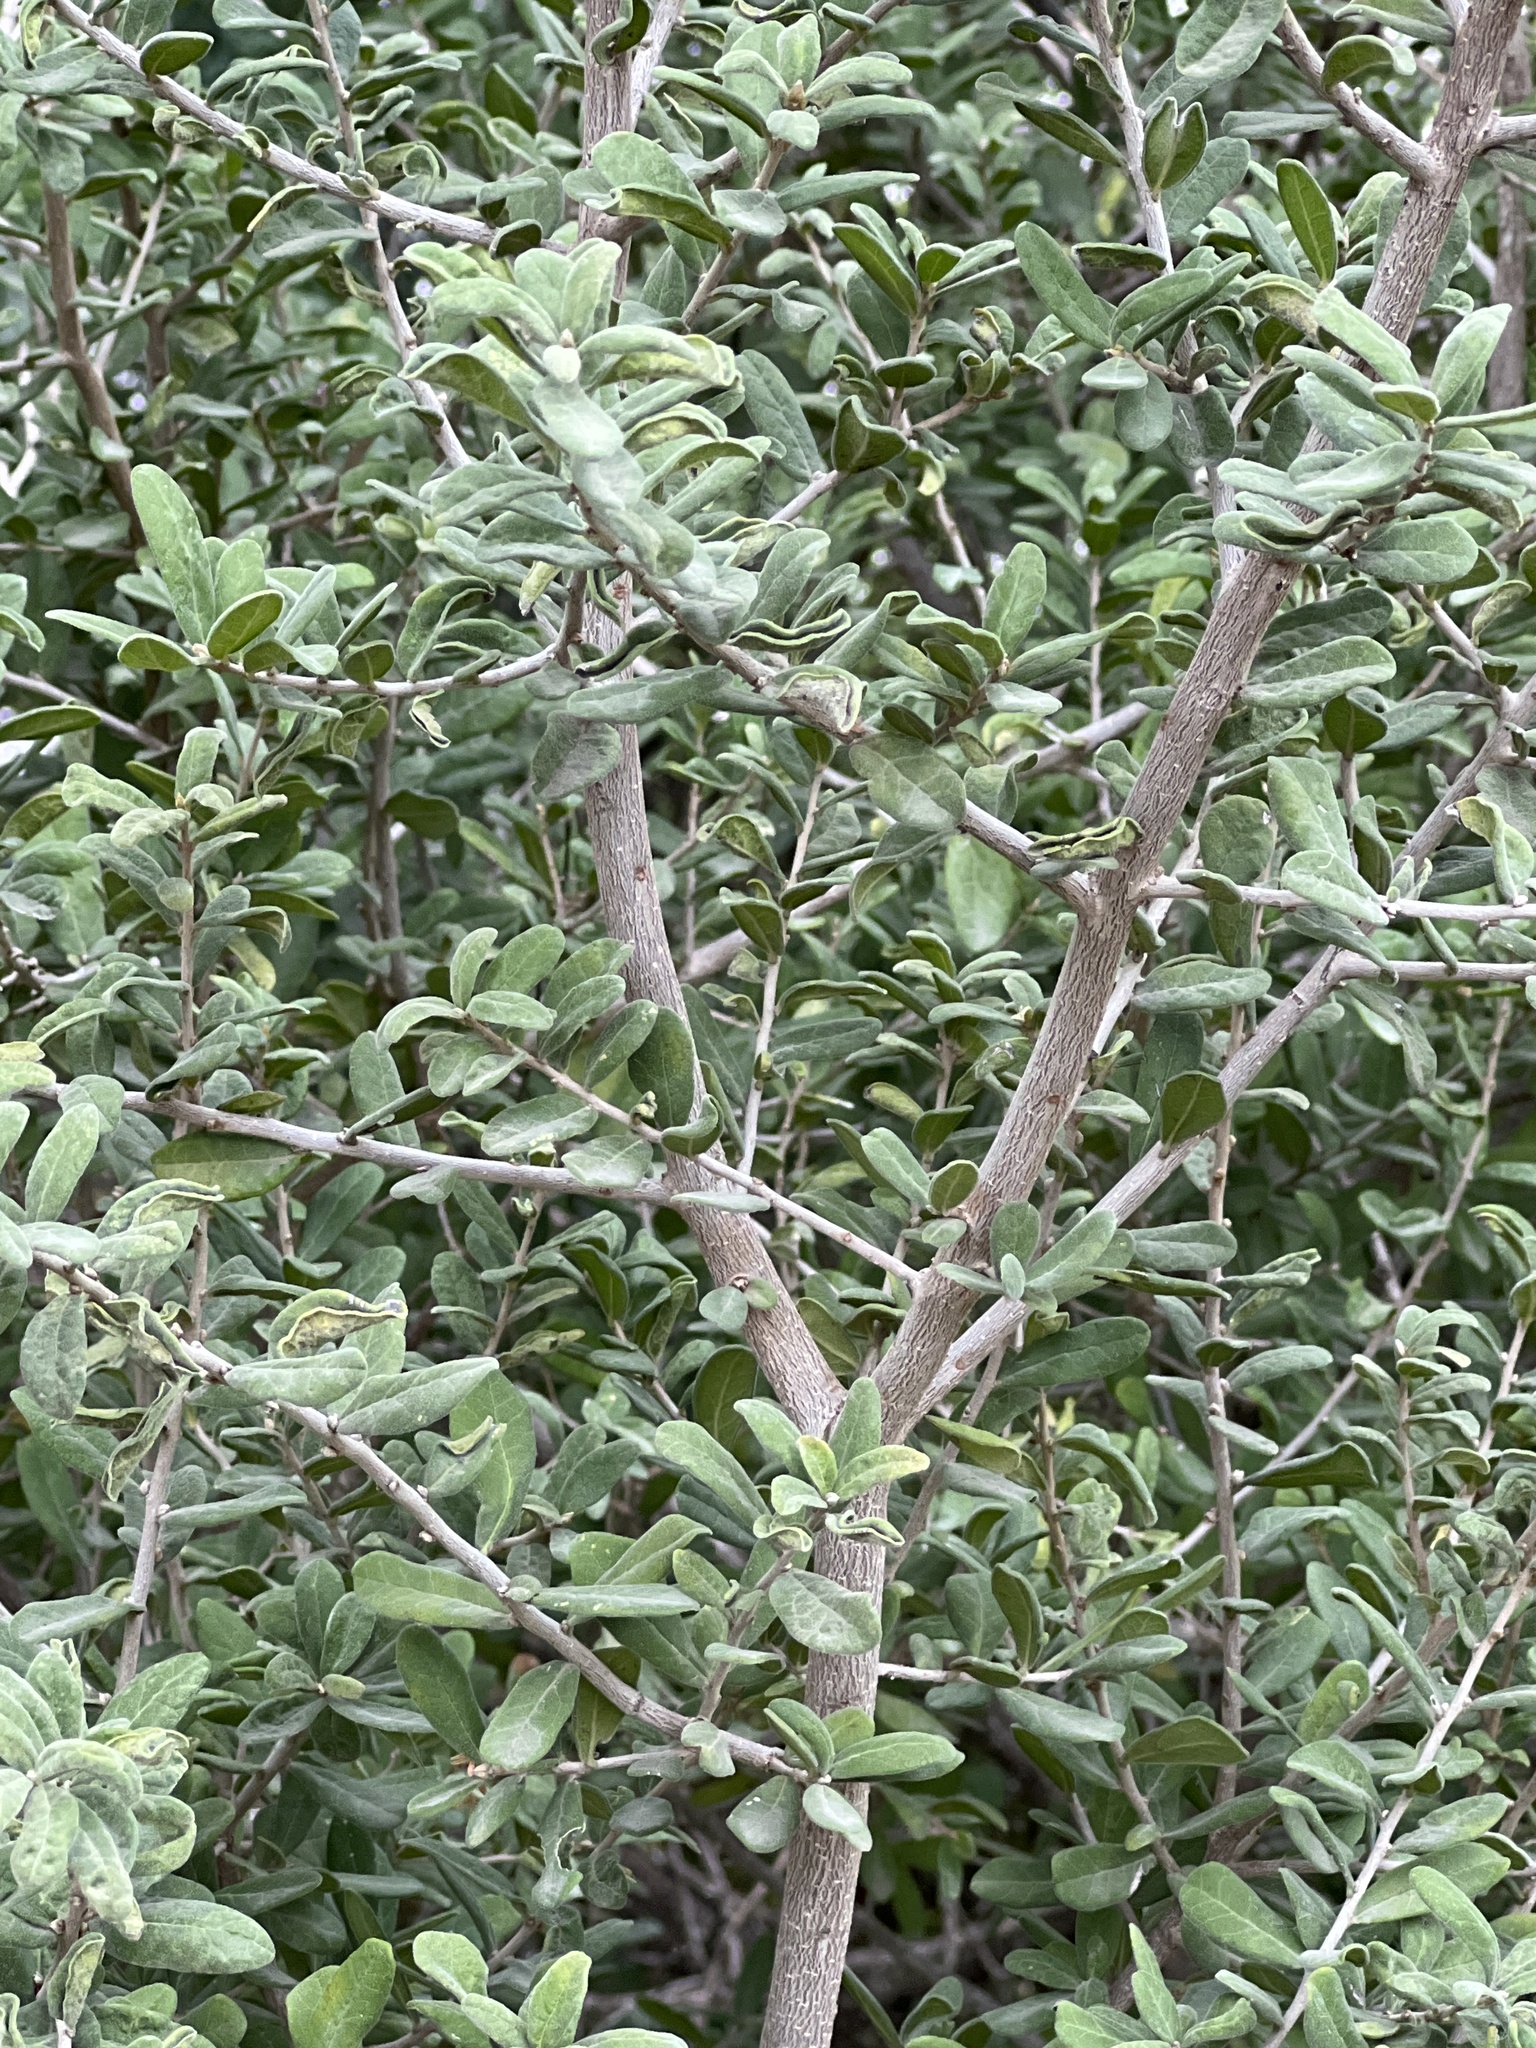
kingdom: Plantae
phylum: Tracheophyta
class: Magnoliopsida
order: Ericales
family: Ebenaceae
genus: Diospyros
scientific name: Diospyros texana
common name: Texas persimmon
